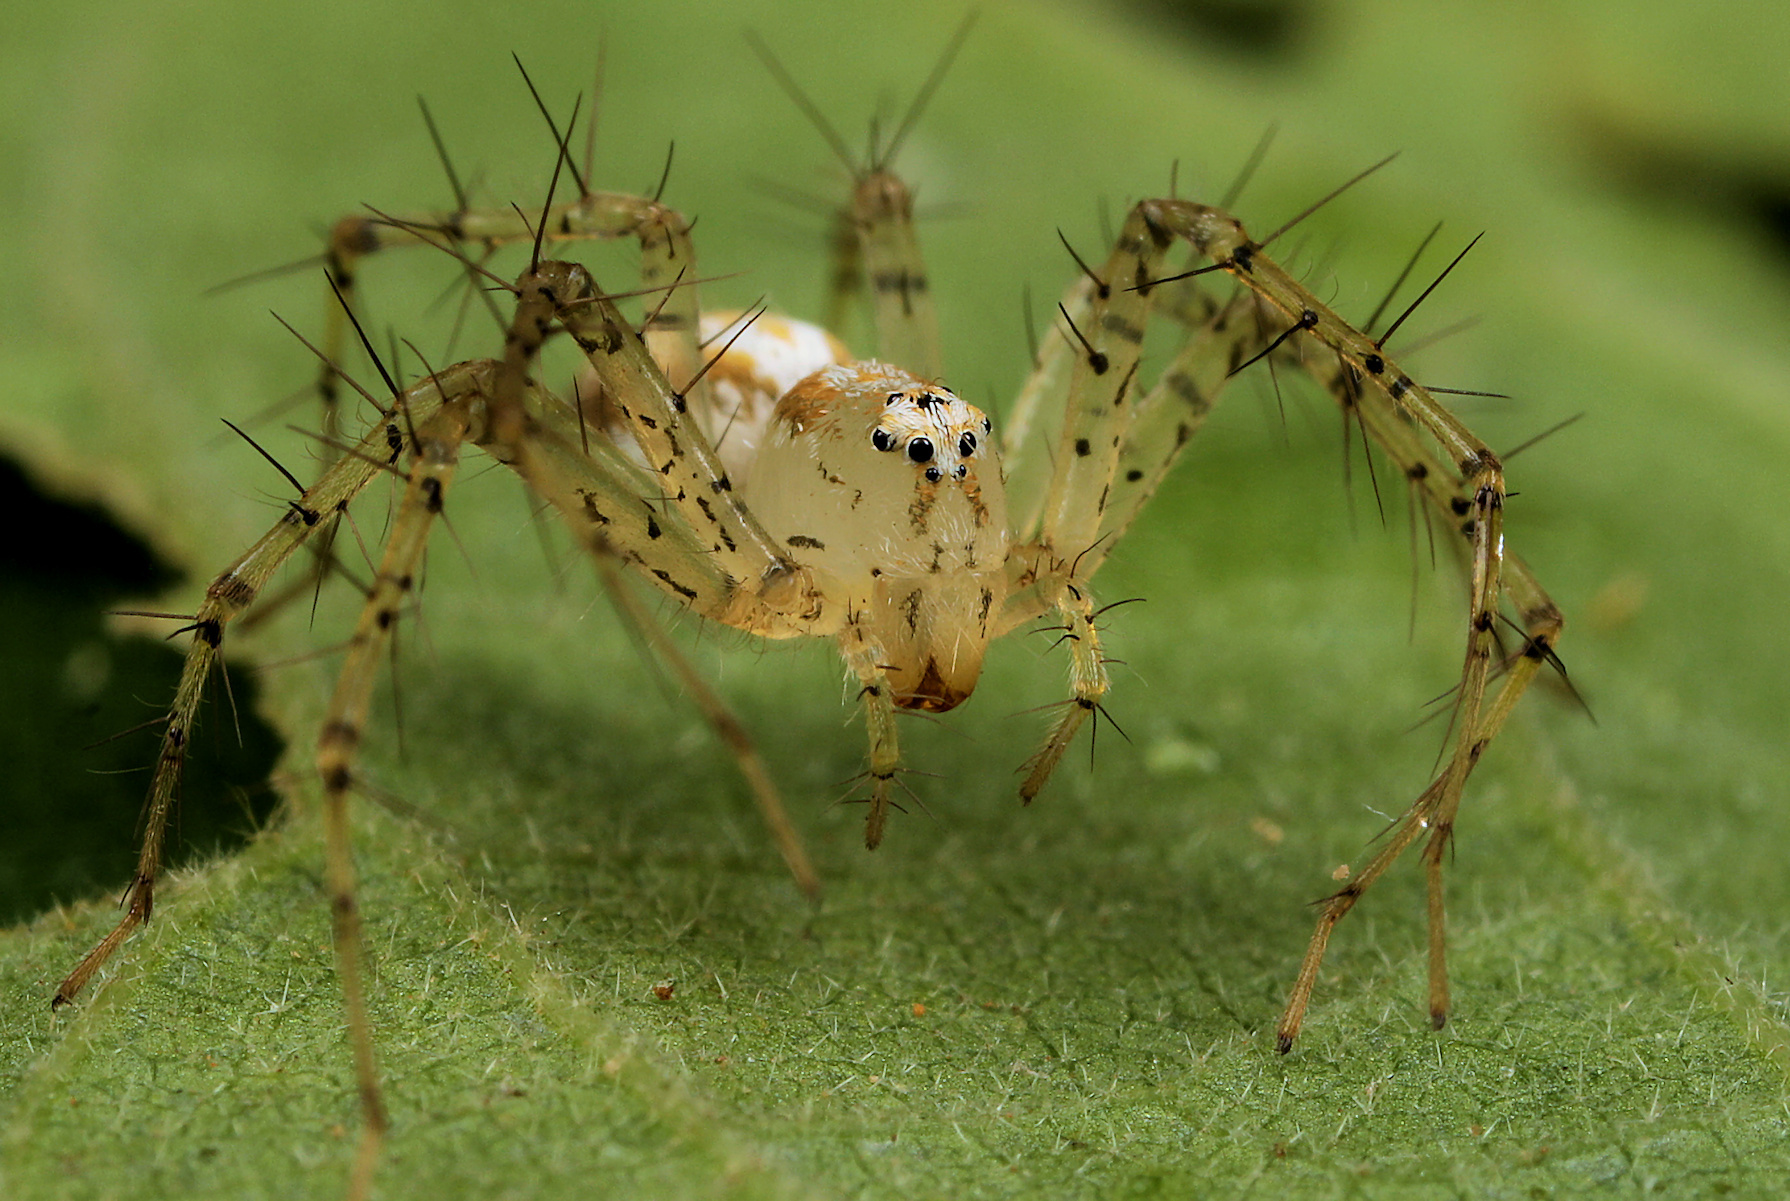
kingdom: Animalia
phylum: Arthropoda
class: Arachnida
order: Araneae
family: Oxyopidae
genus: Oxyopes
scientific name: Oxyopes longispinosus
